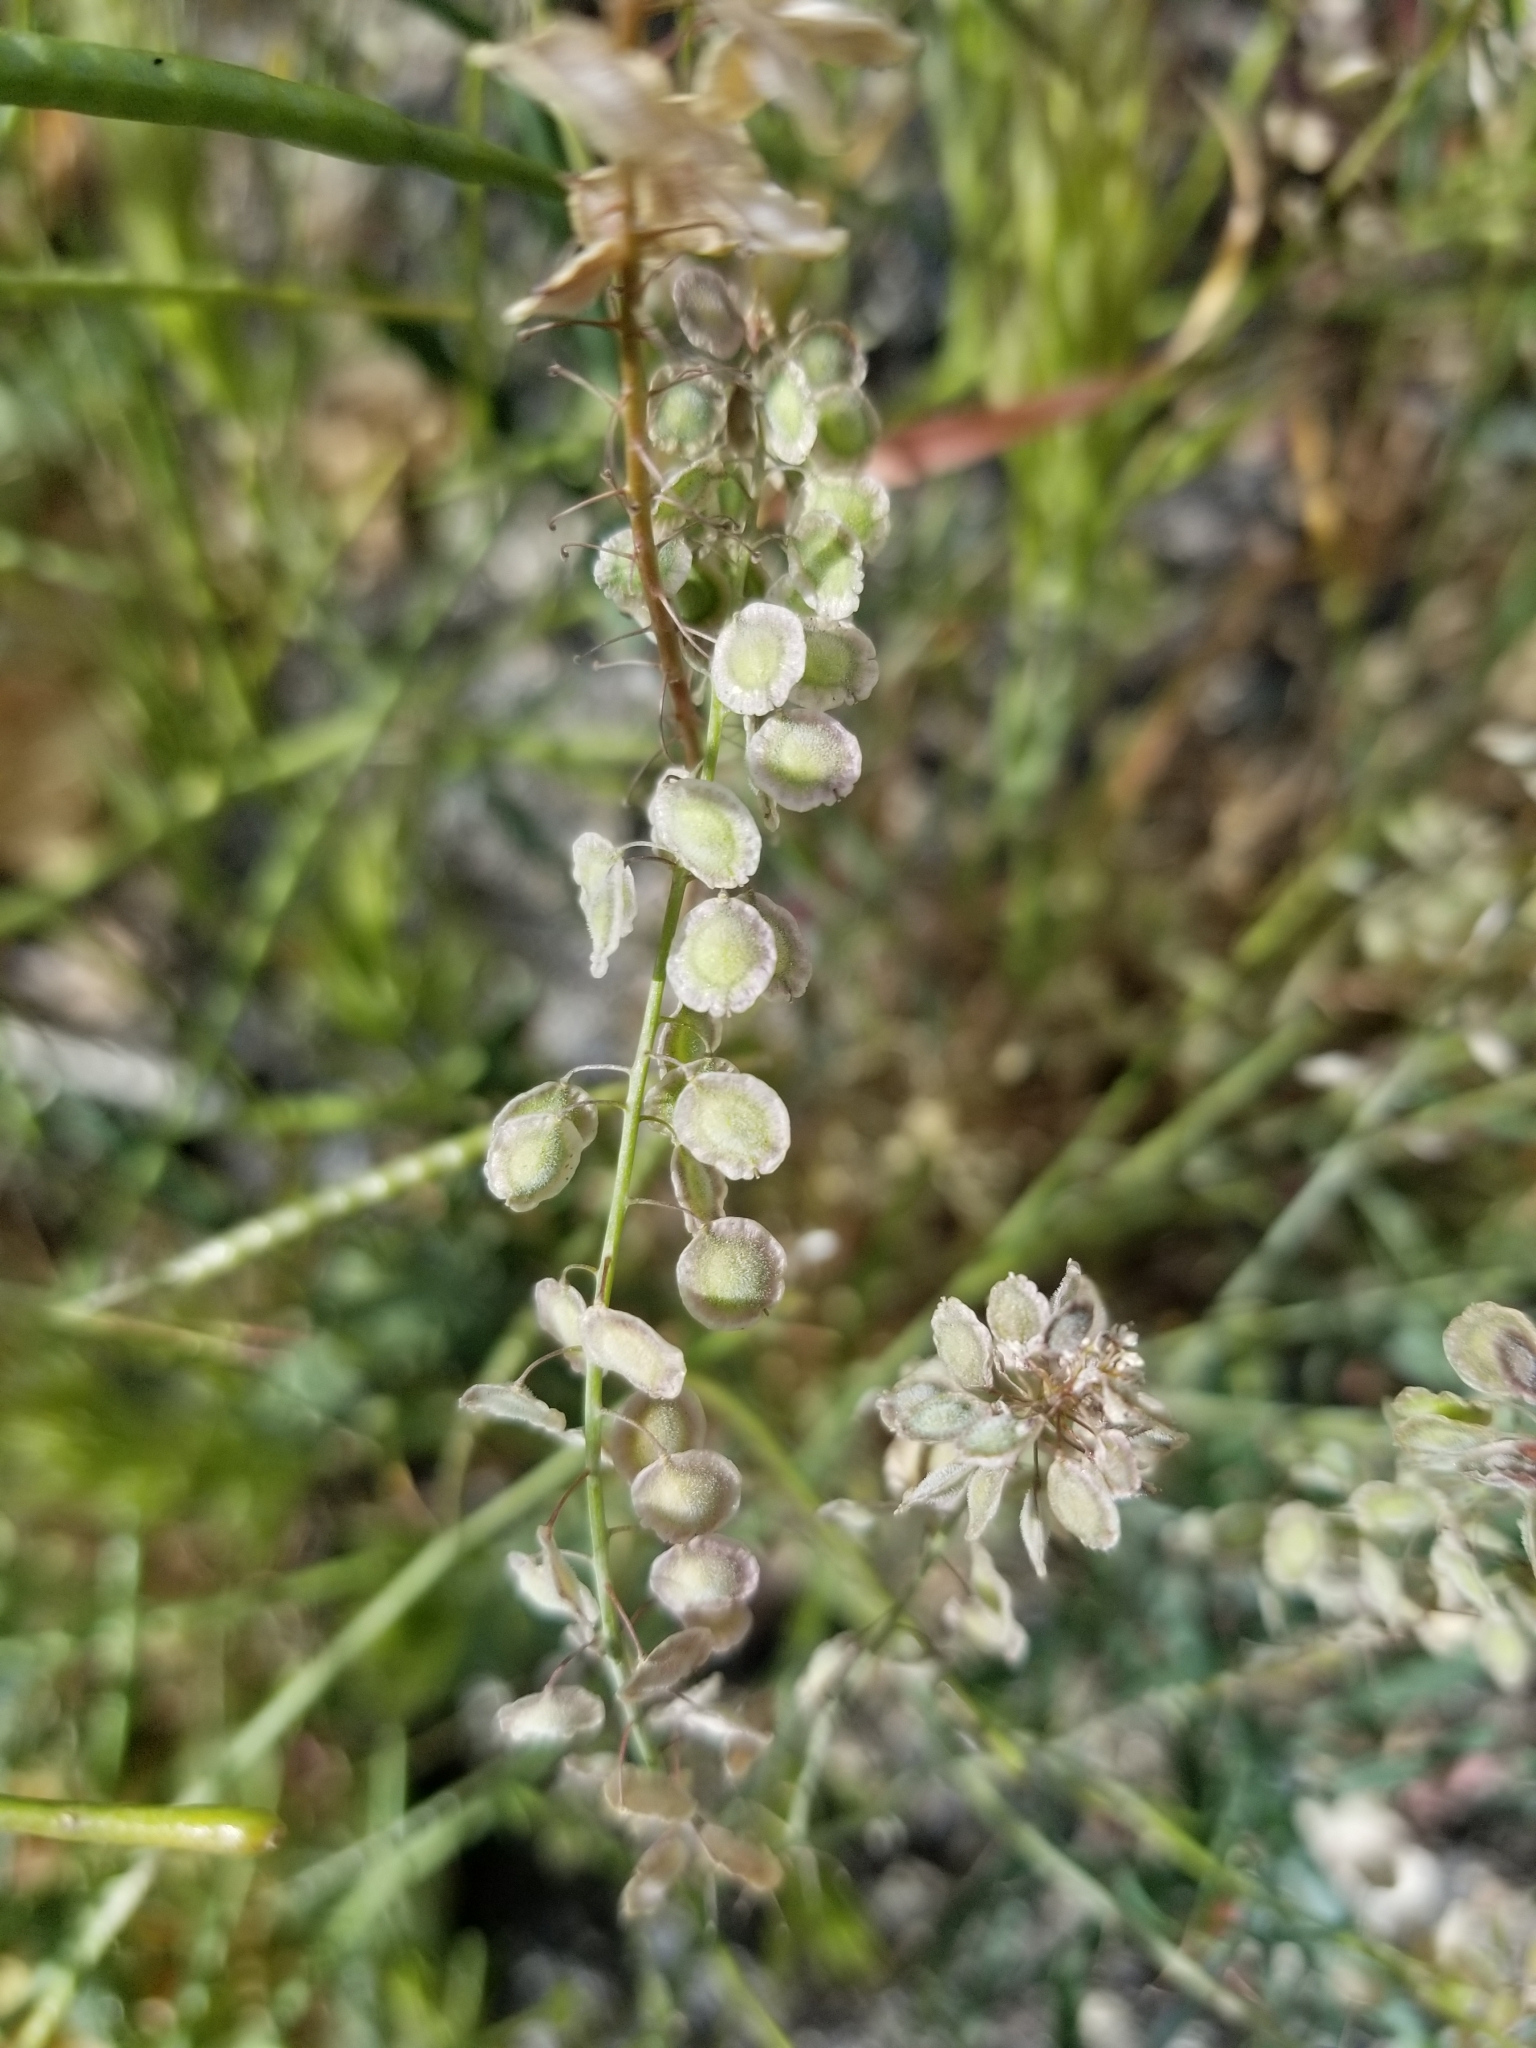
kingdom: Plantae
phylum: Tracheophyta
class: Magnoliopsida
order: Brassicales
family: Brassicaceae
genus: Thysanocarpus
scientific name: Thysanocarpus curvipes
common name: Sand fringepod
